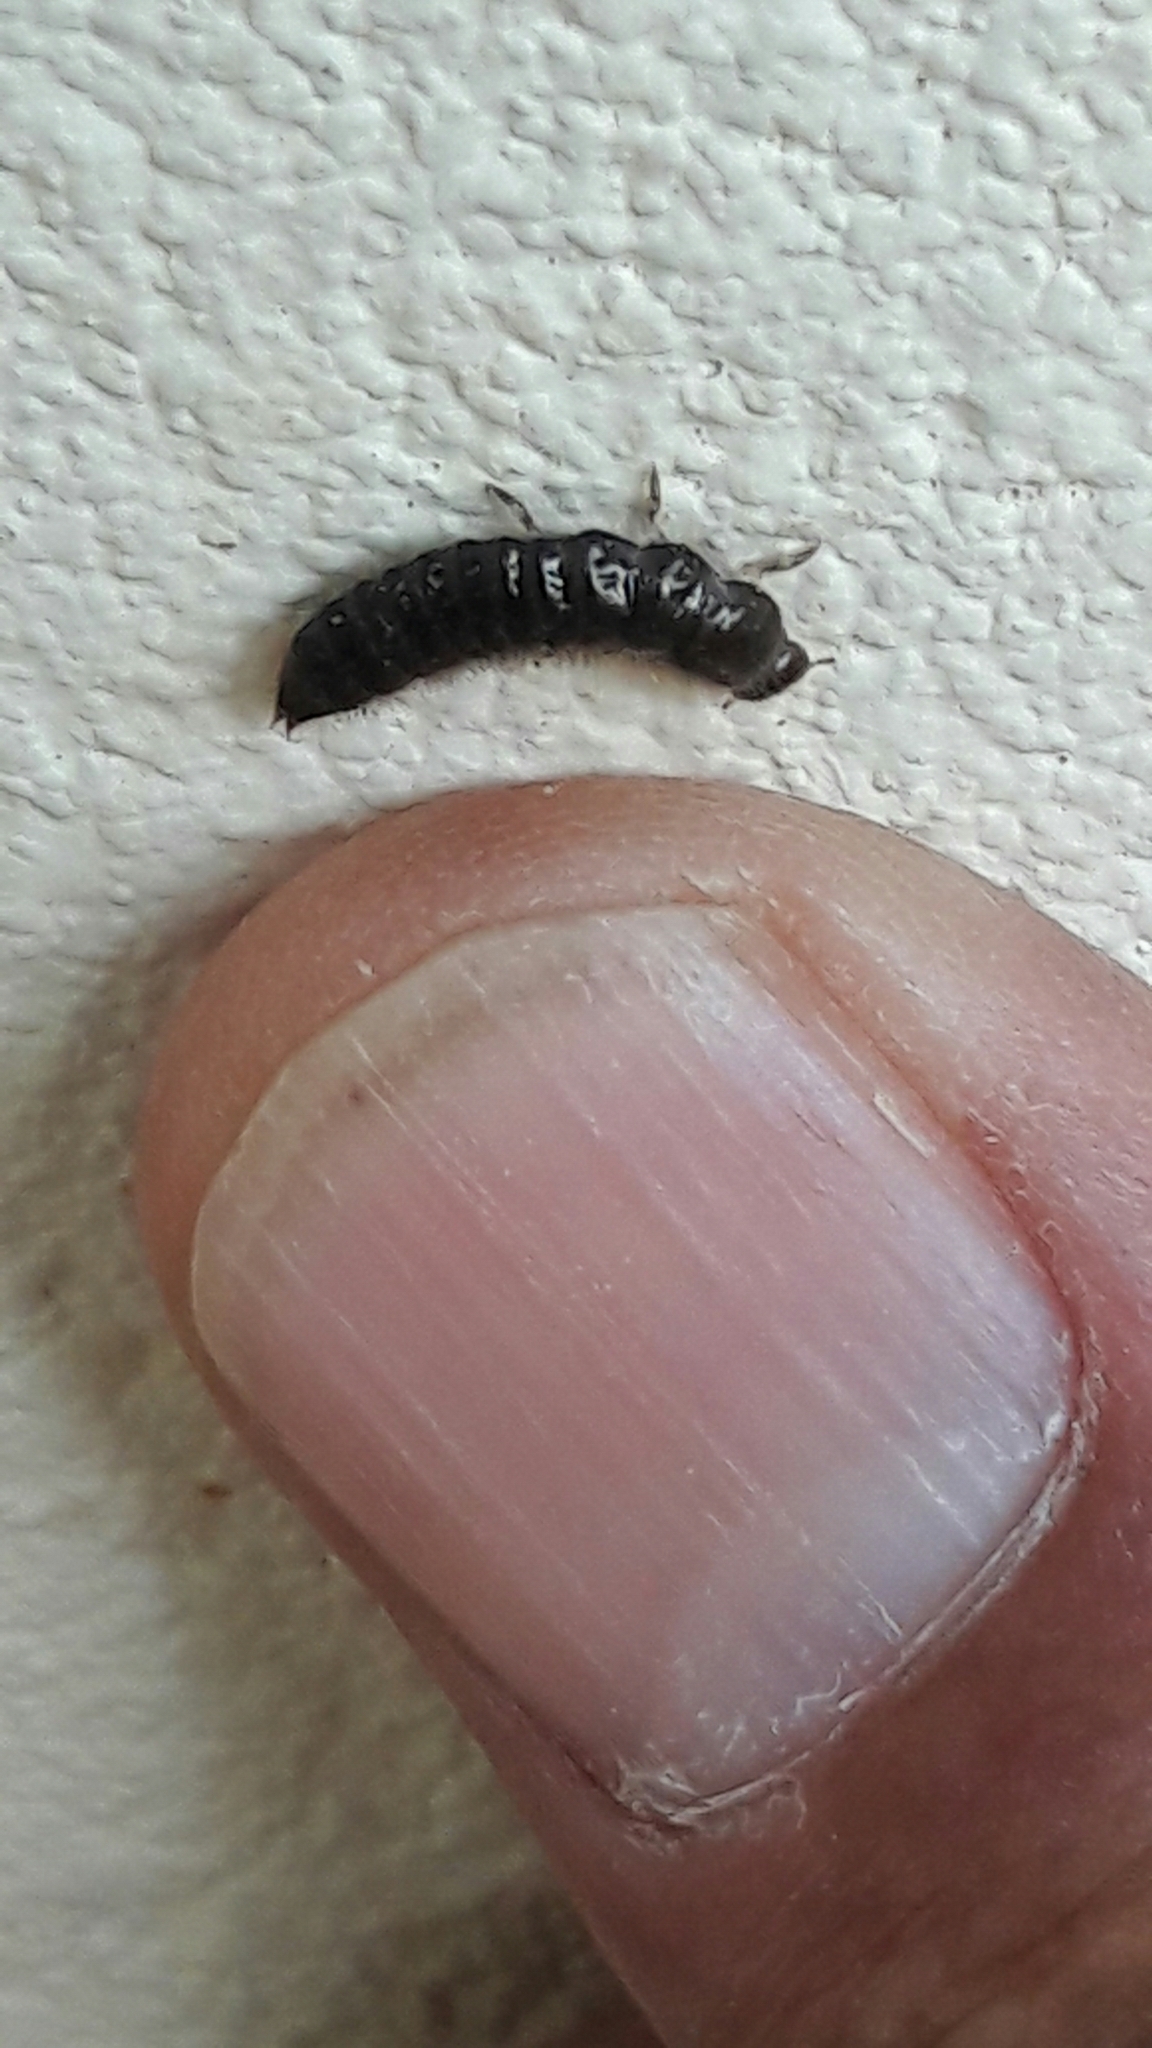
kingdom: Animalia
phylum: Arthropoda
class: Insecta
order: Coleoptera
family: Tenebrionidae
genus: Lagria
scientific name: Lagria villosa
